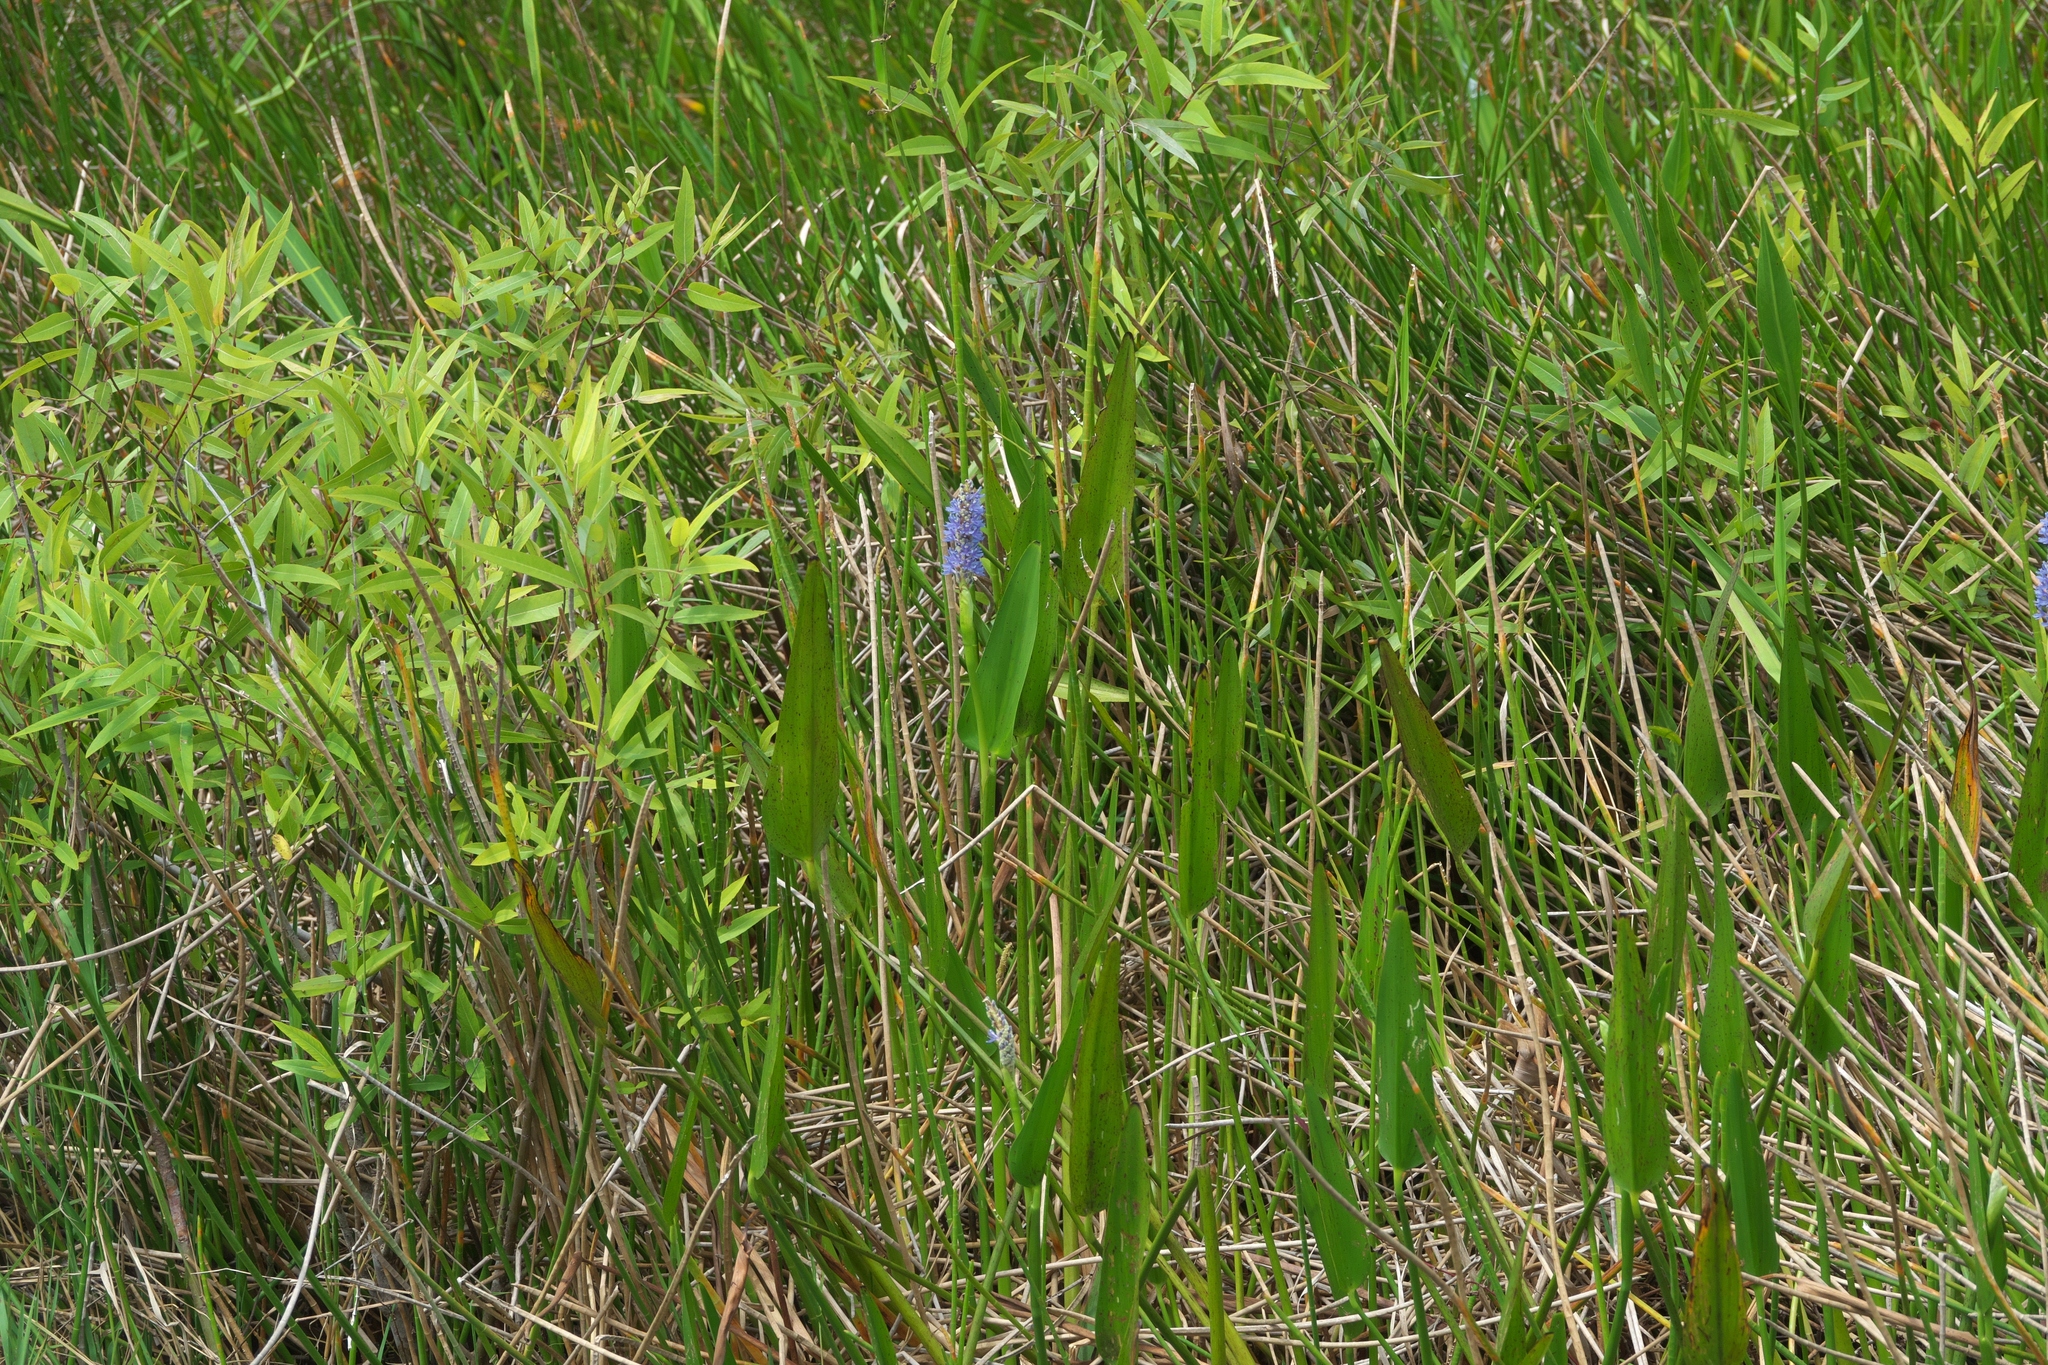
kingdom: Plantae
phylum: Tracheophyta
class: Liliopsida
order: Commelinales
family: Pontederiaceae
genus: Pontederia
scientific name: Pontederia cordata
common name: Pickerelweed
